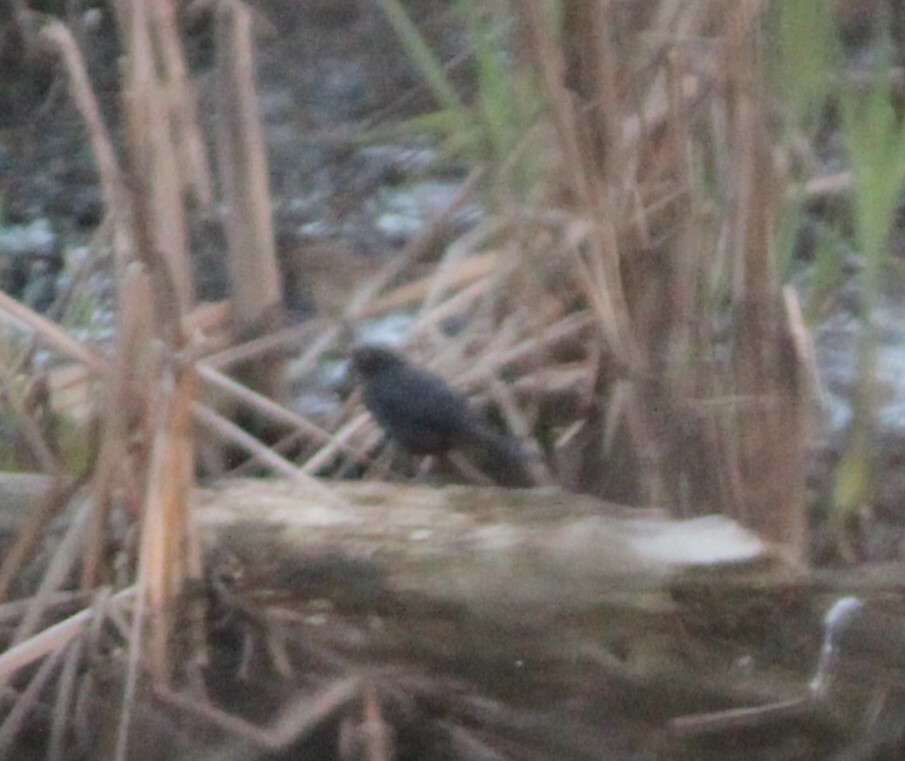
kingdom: Animalia
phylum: Chordata
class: Aves
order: Passeriformes
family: Icteridae
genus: Euphagus
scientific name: Euphagus carolinus
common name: Rusty blackbird
